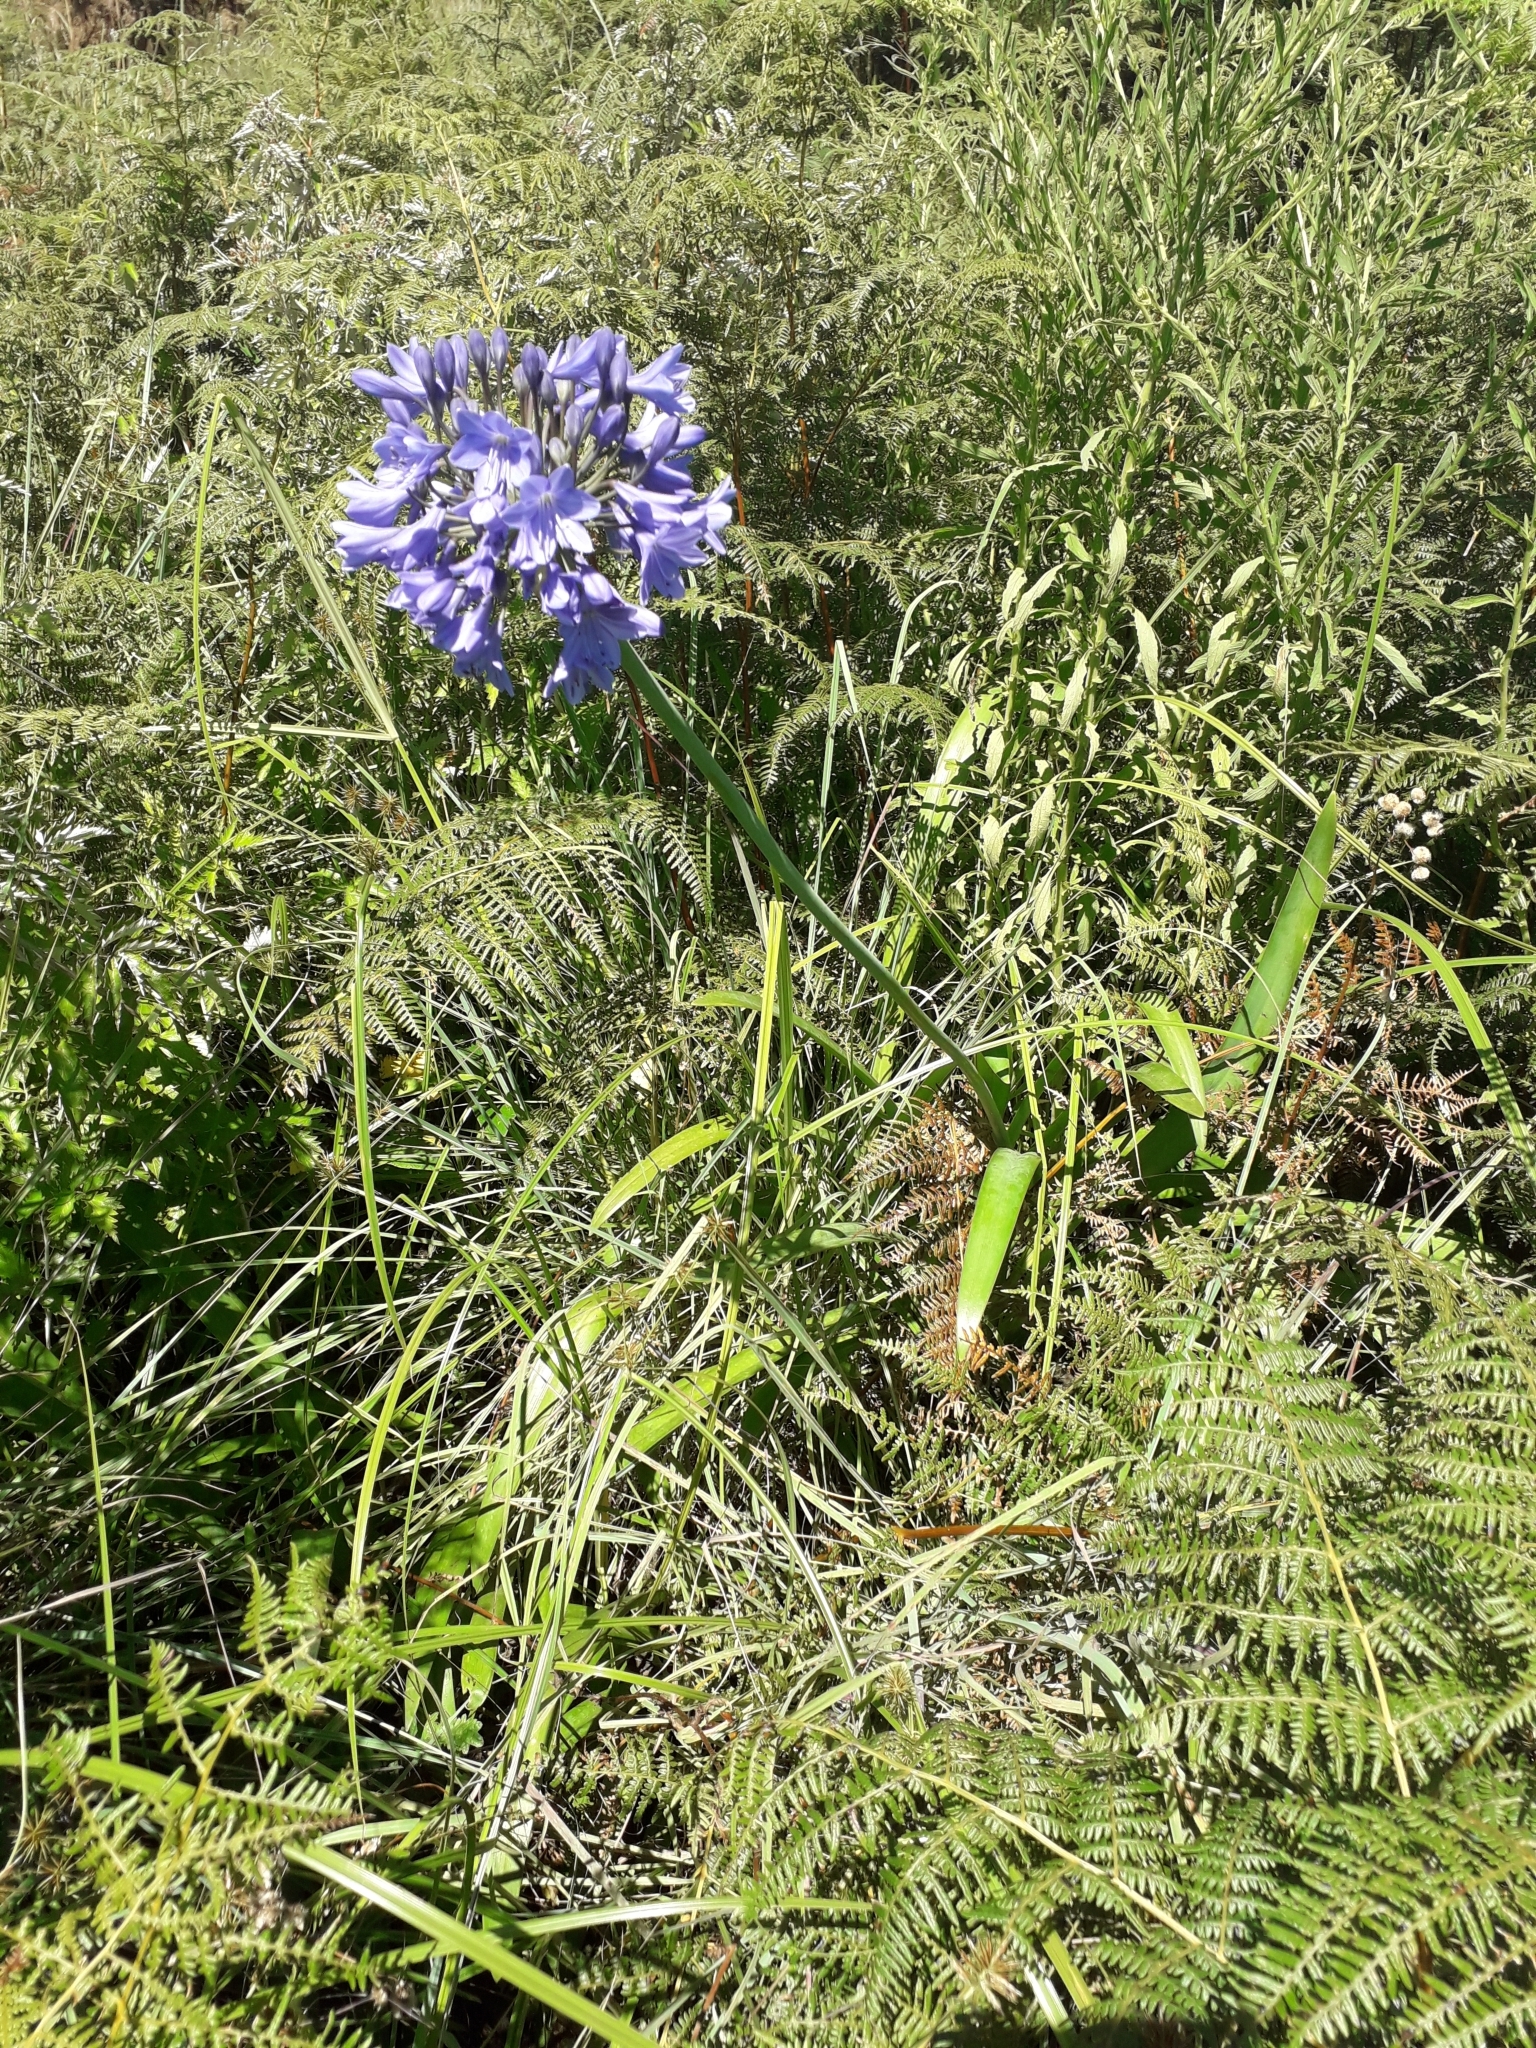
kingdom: Plantae
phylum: Tracheophyta
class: Liliopsida
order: Asparagales
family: Amaryllidaceae
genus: Agapanthus
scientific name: Agapanthus campanulatus
